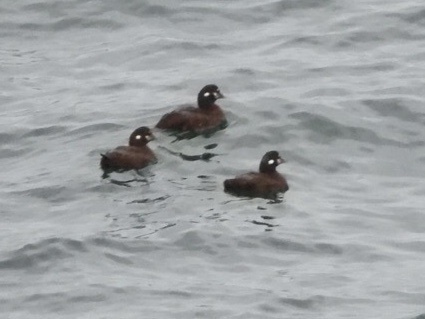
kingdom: Animalia
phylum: Chordata
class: Aves
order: Anseriformes
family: Anatidae
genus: Histrionicus
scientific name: Histrionicus histrionicus
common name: Harlequin duck
